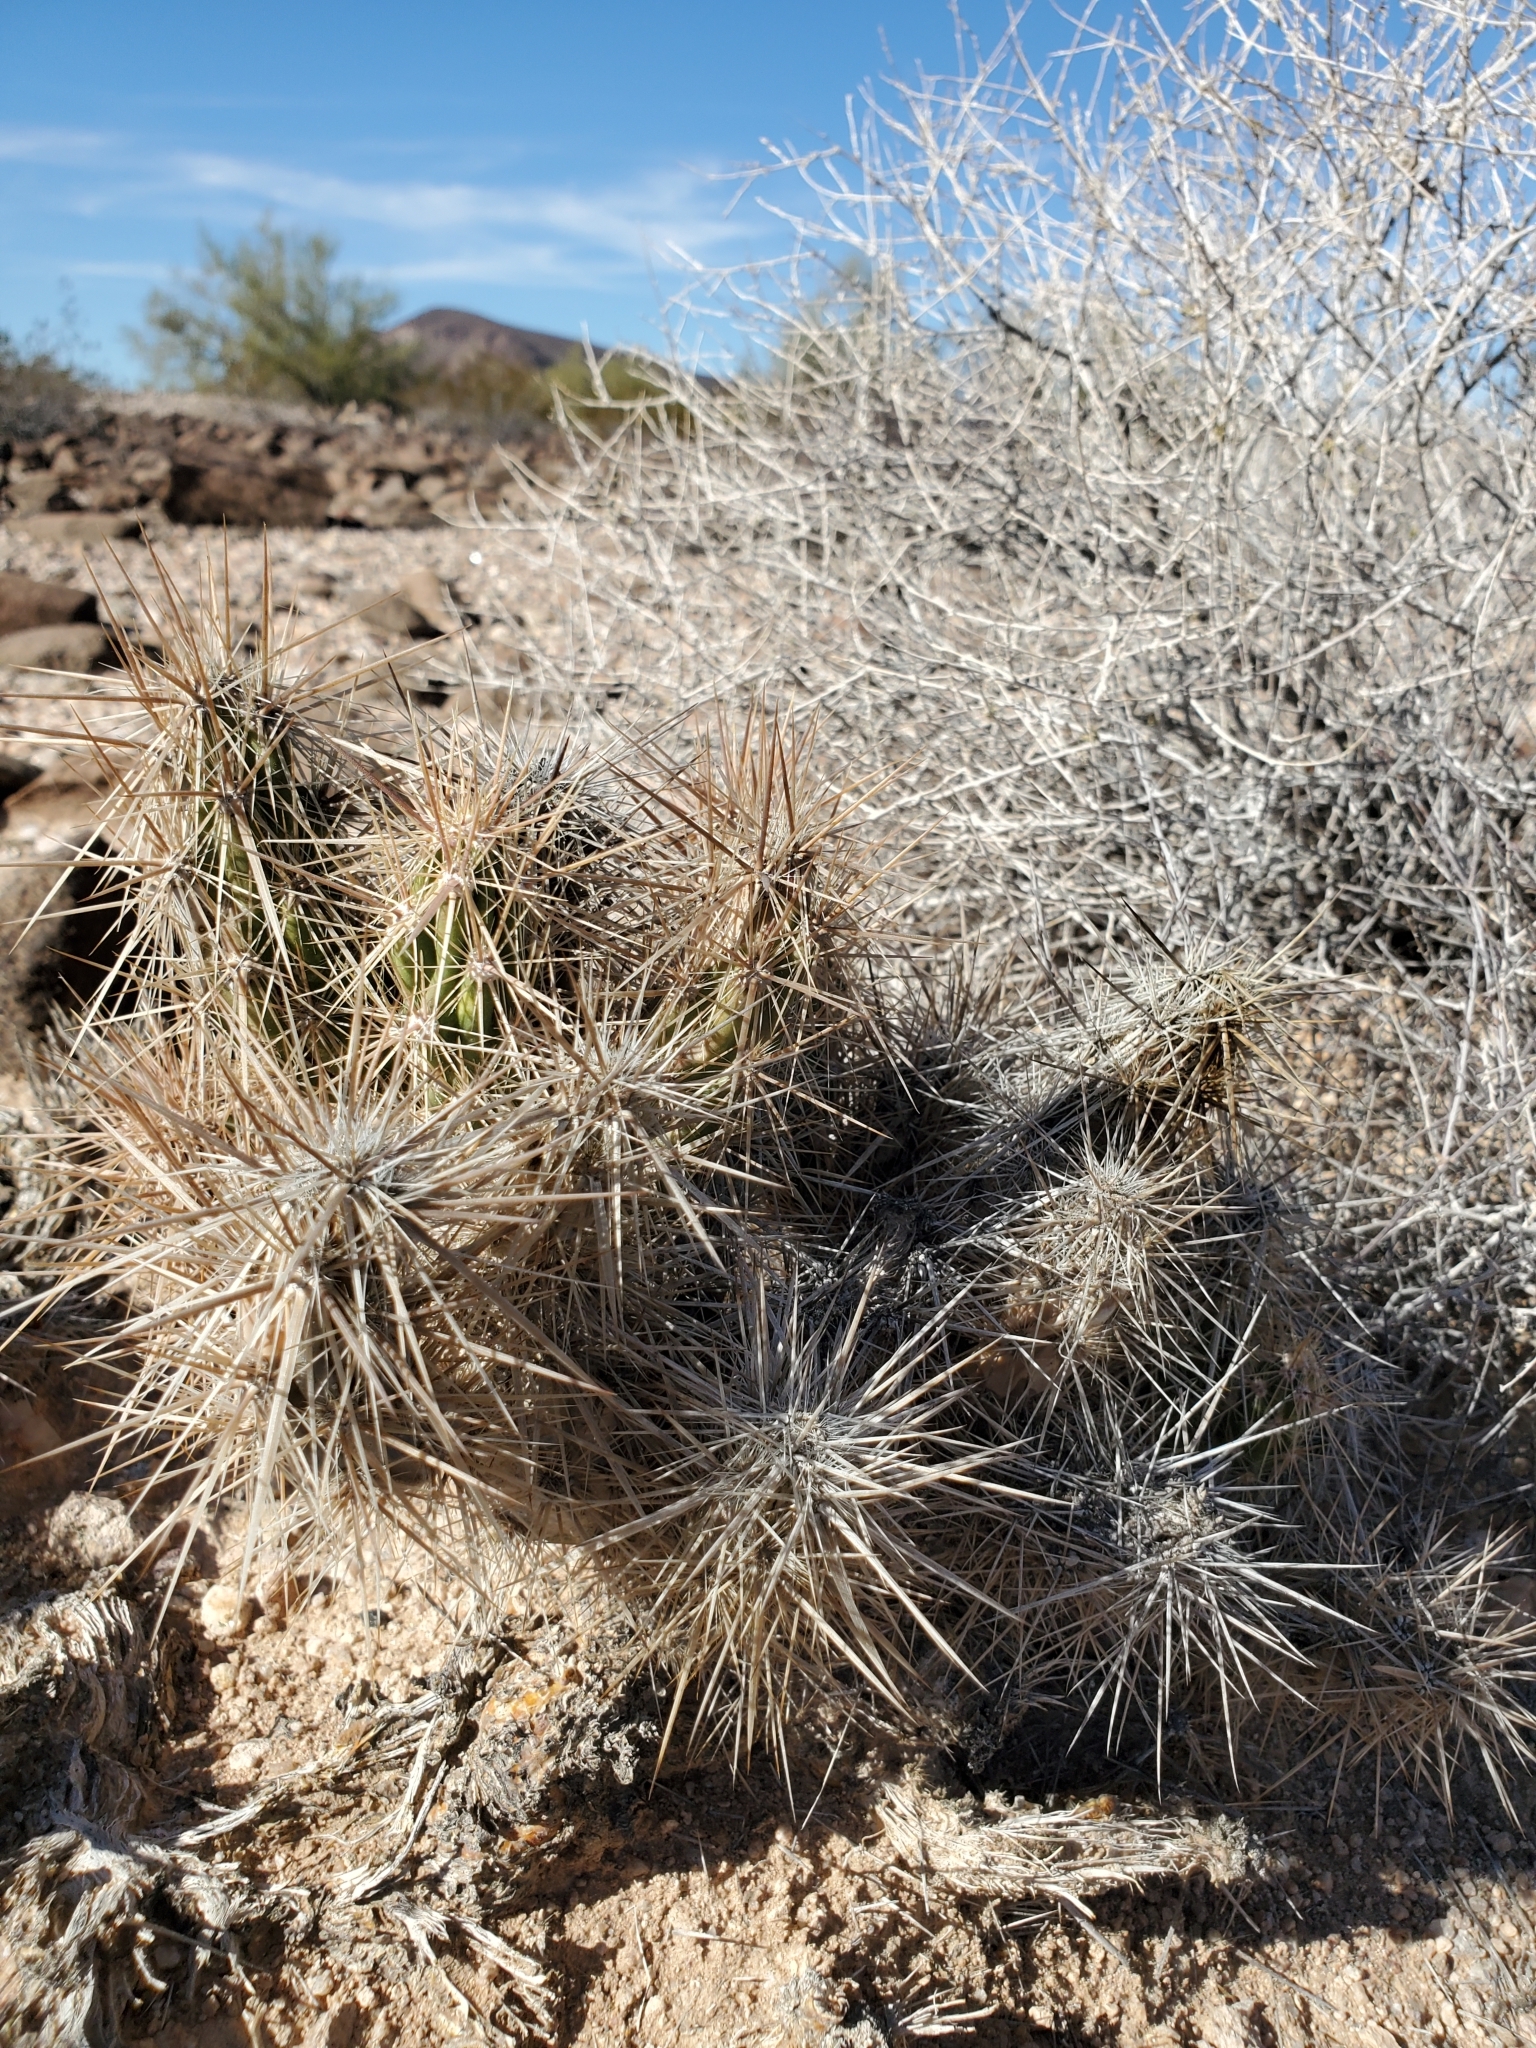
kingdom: Plantae
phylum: Tracheophyta
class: Magnoliopsida
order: Caryophyllales
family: Cactaceae
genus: Grusonia
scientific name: Grusonia kunzei
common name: Wright's club cholla
